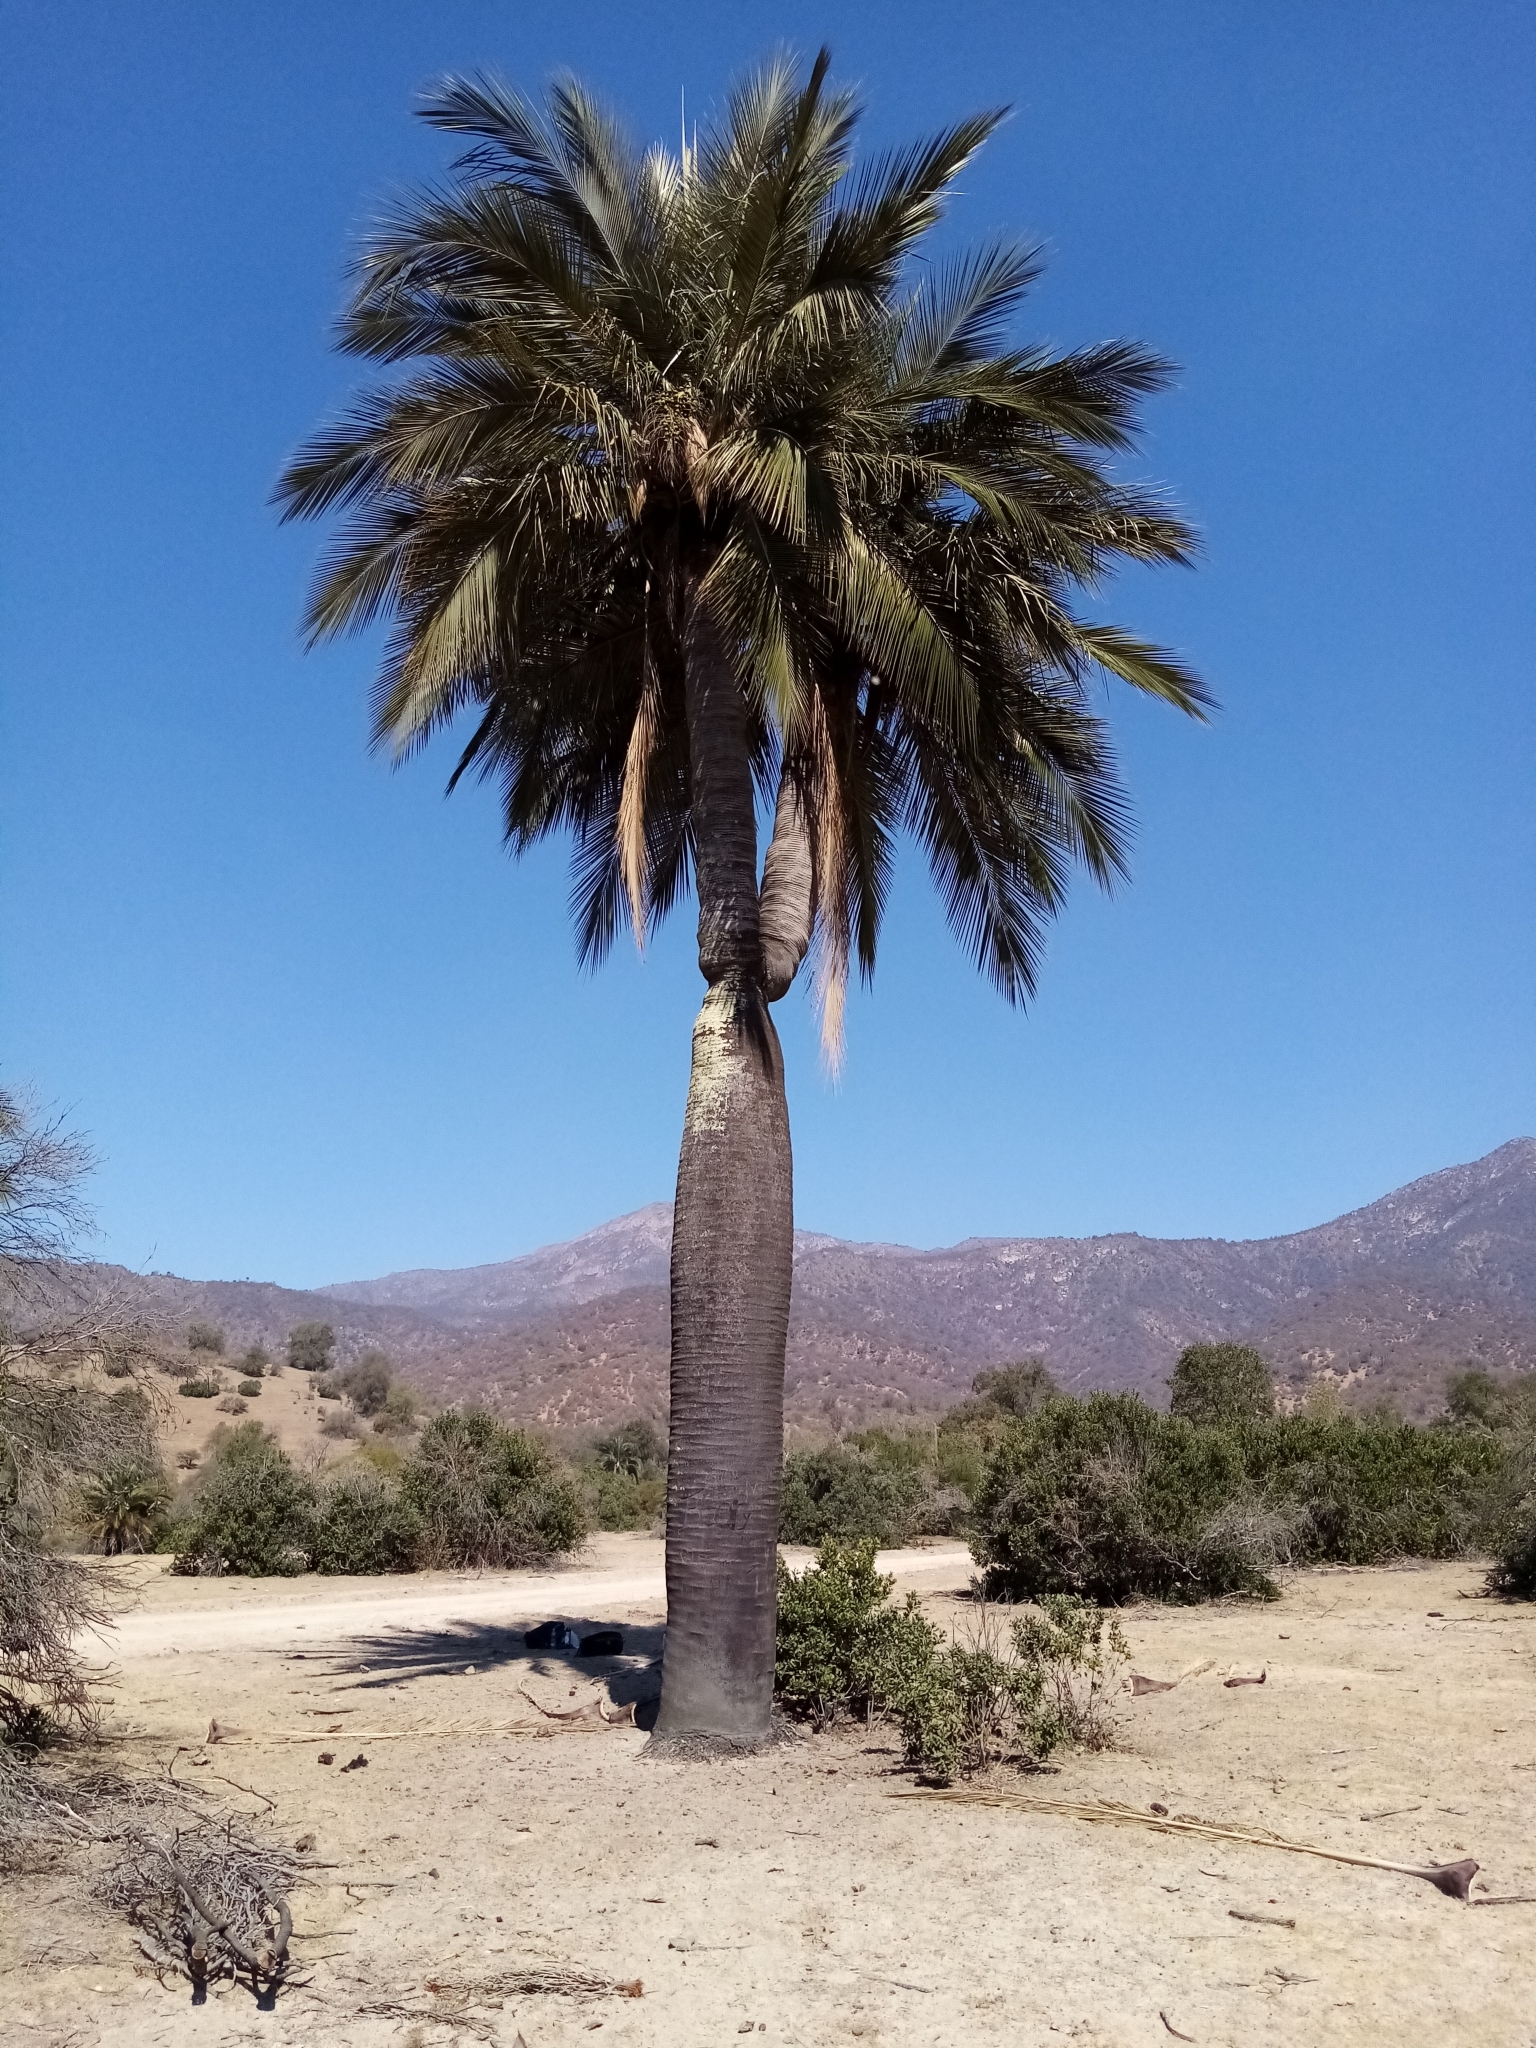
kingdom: Plantae
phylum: Tracheophyta
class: Liliopsida
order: Arecales
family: Arecaceae
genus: Jubaea
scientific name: Jubaea chilensis
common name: Coquito palm
